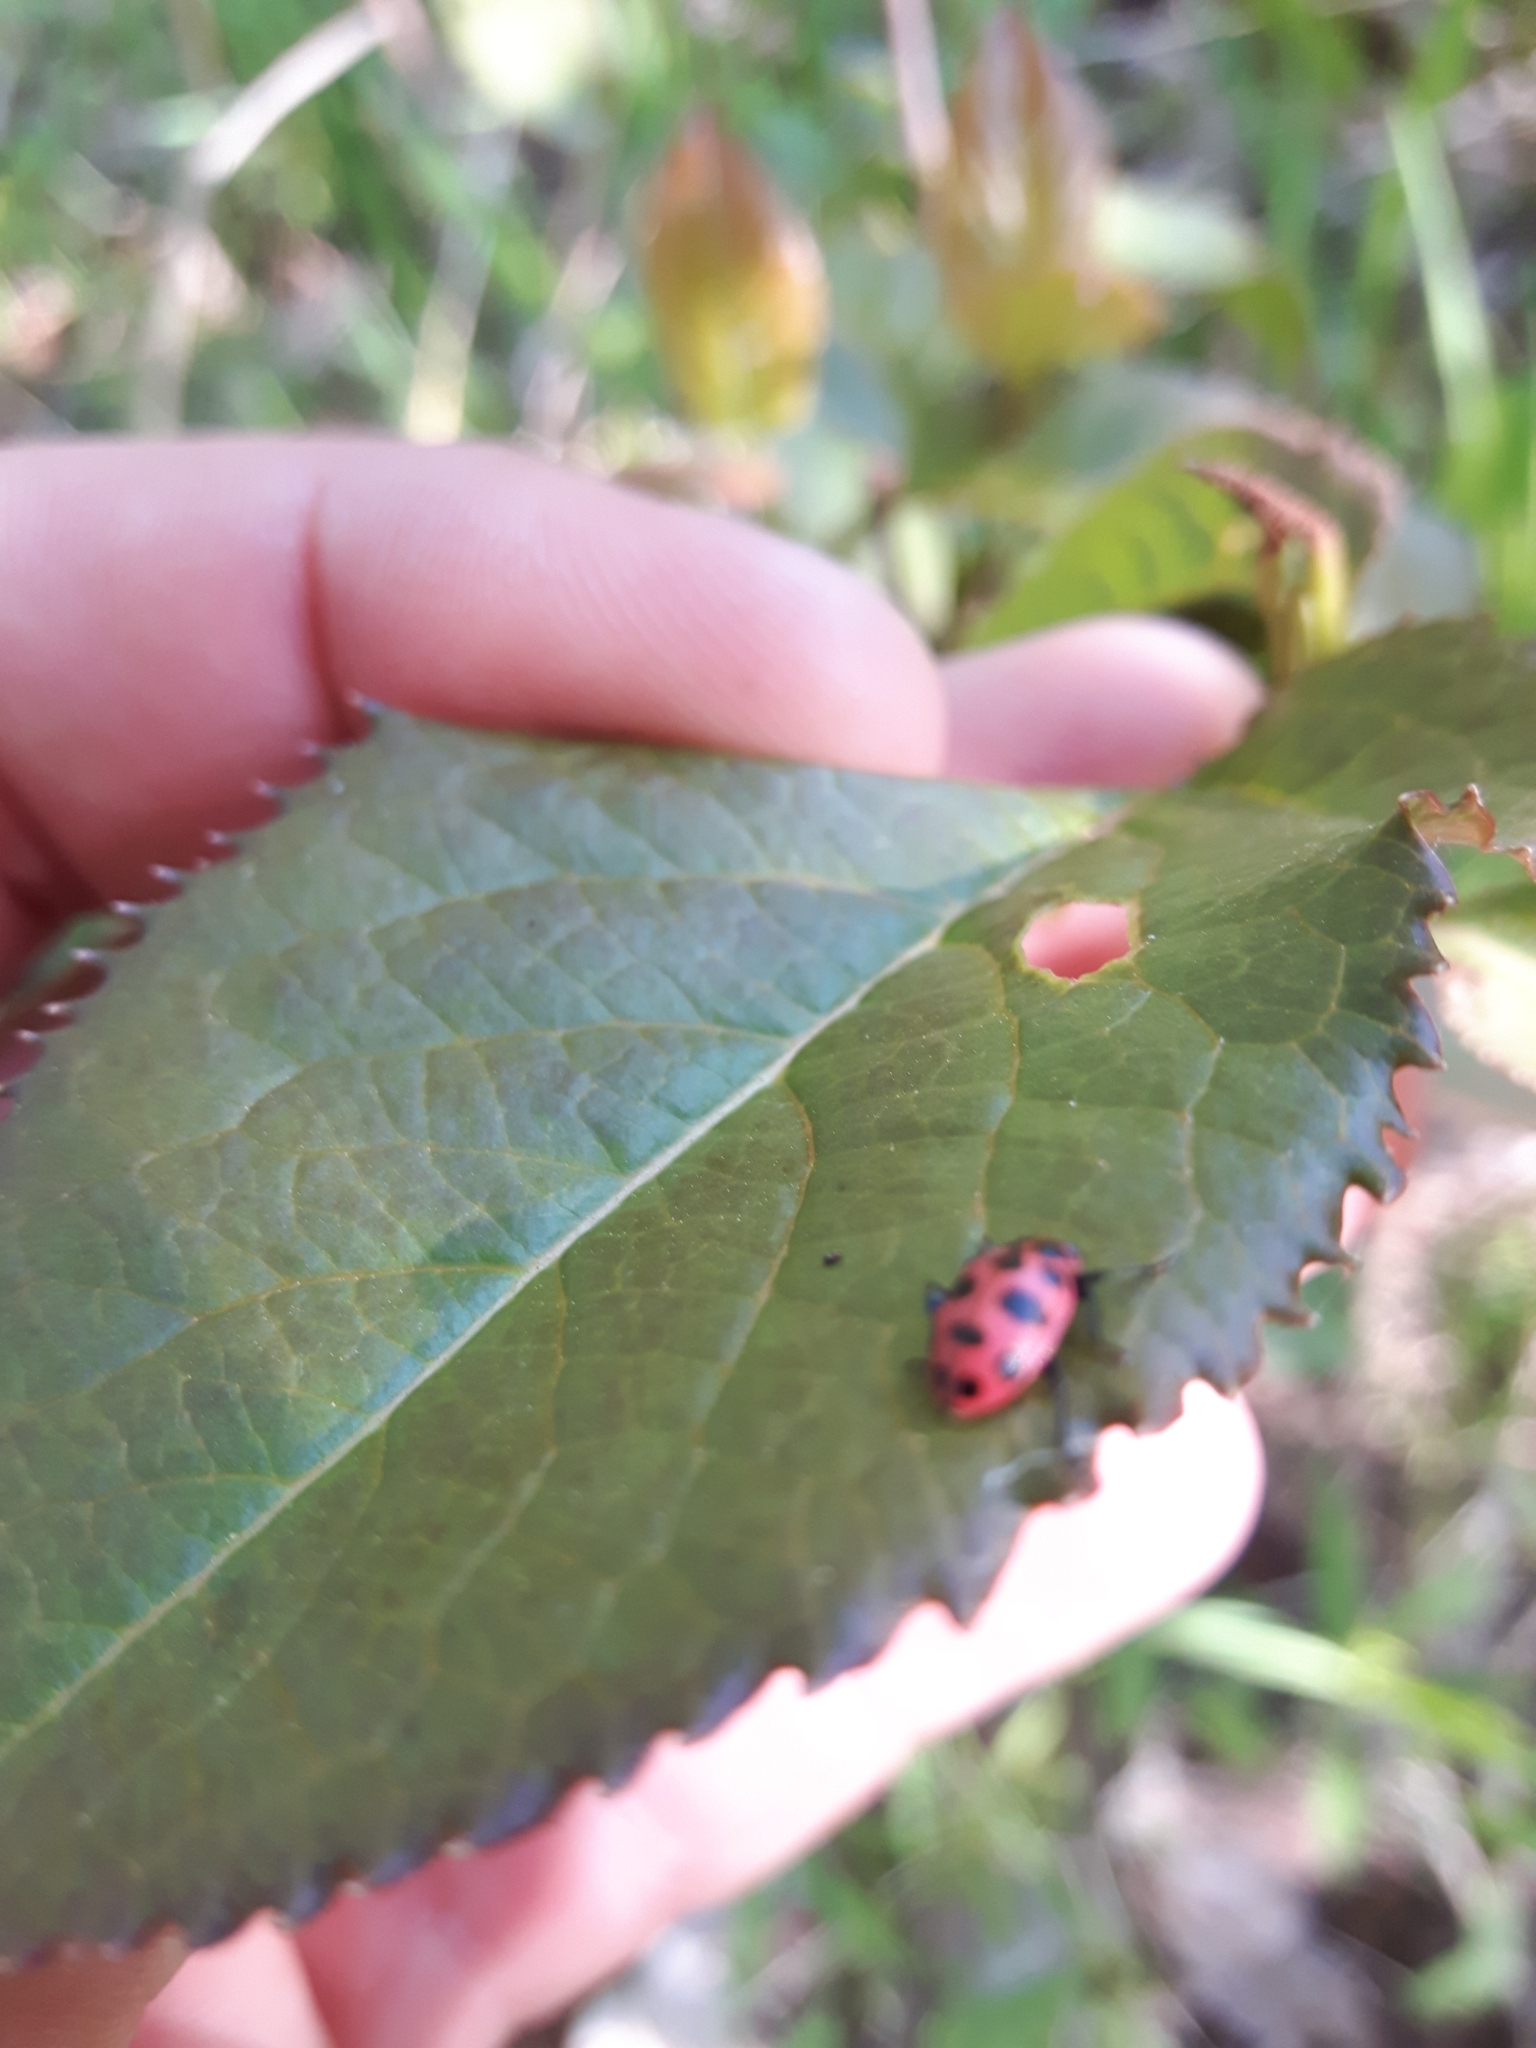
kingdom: Animalia
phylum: Arthropoda
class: Insecta
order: Coleoptera
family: Coccinellidae
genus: Coleomegilla
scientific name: Coleomegilla maculata
